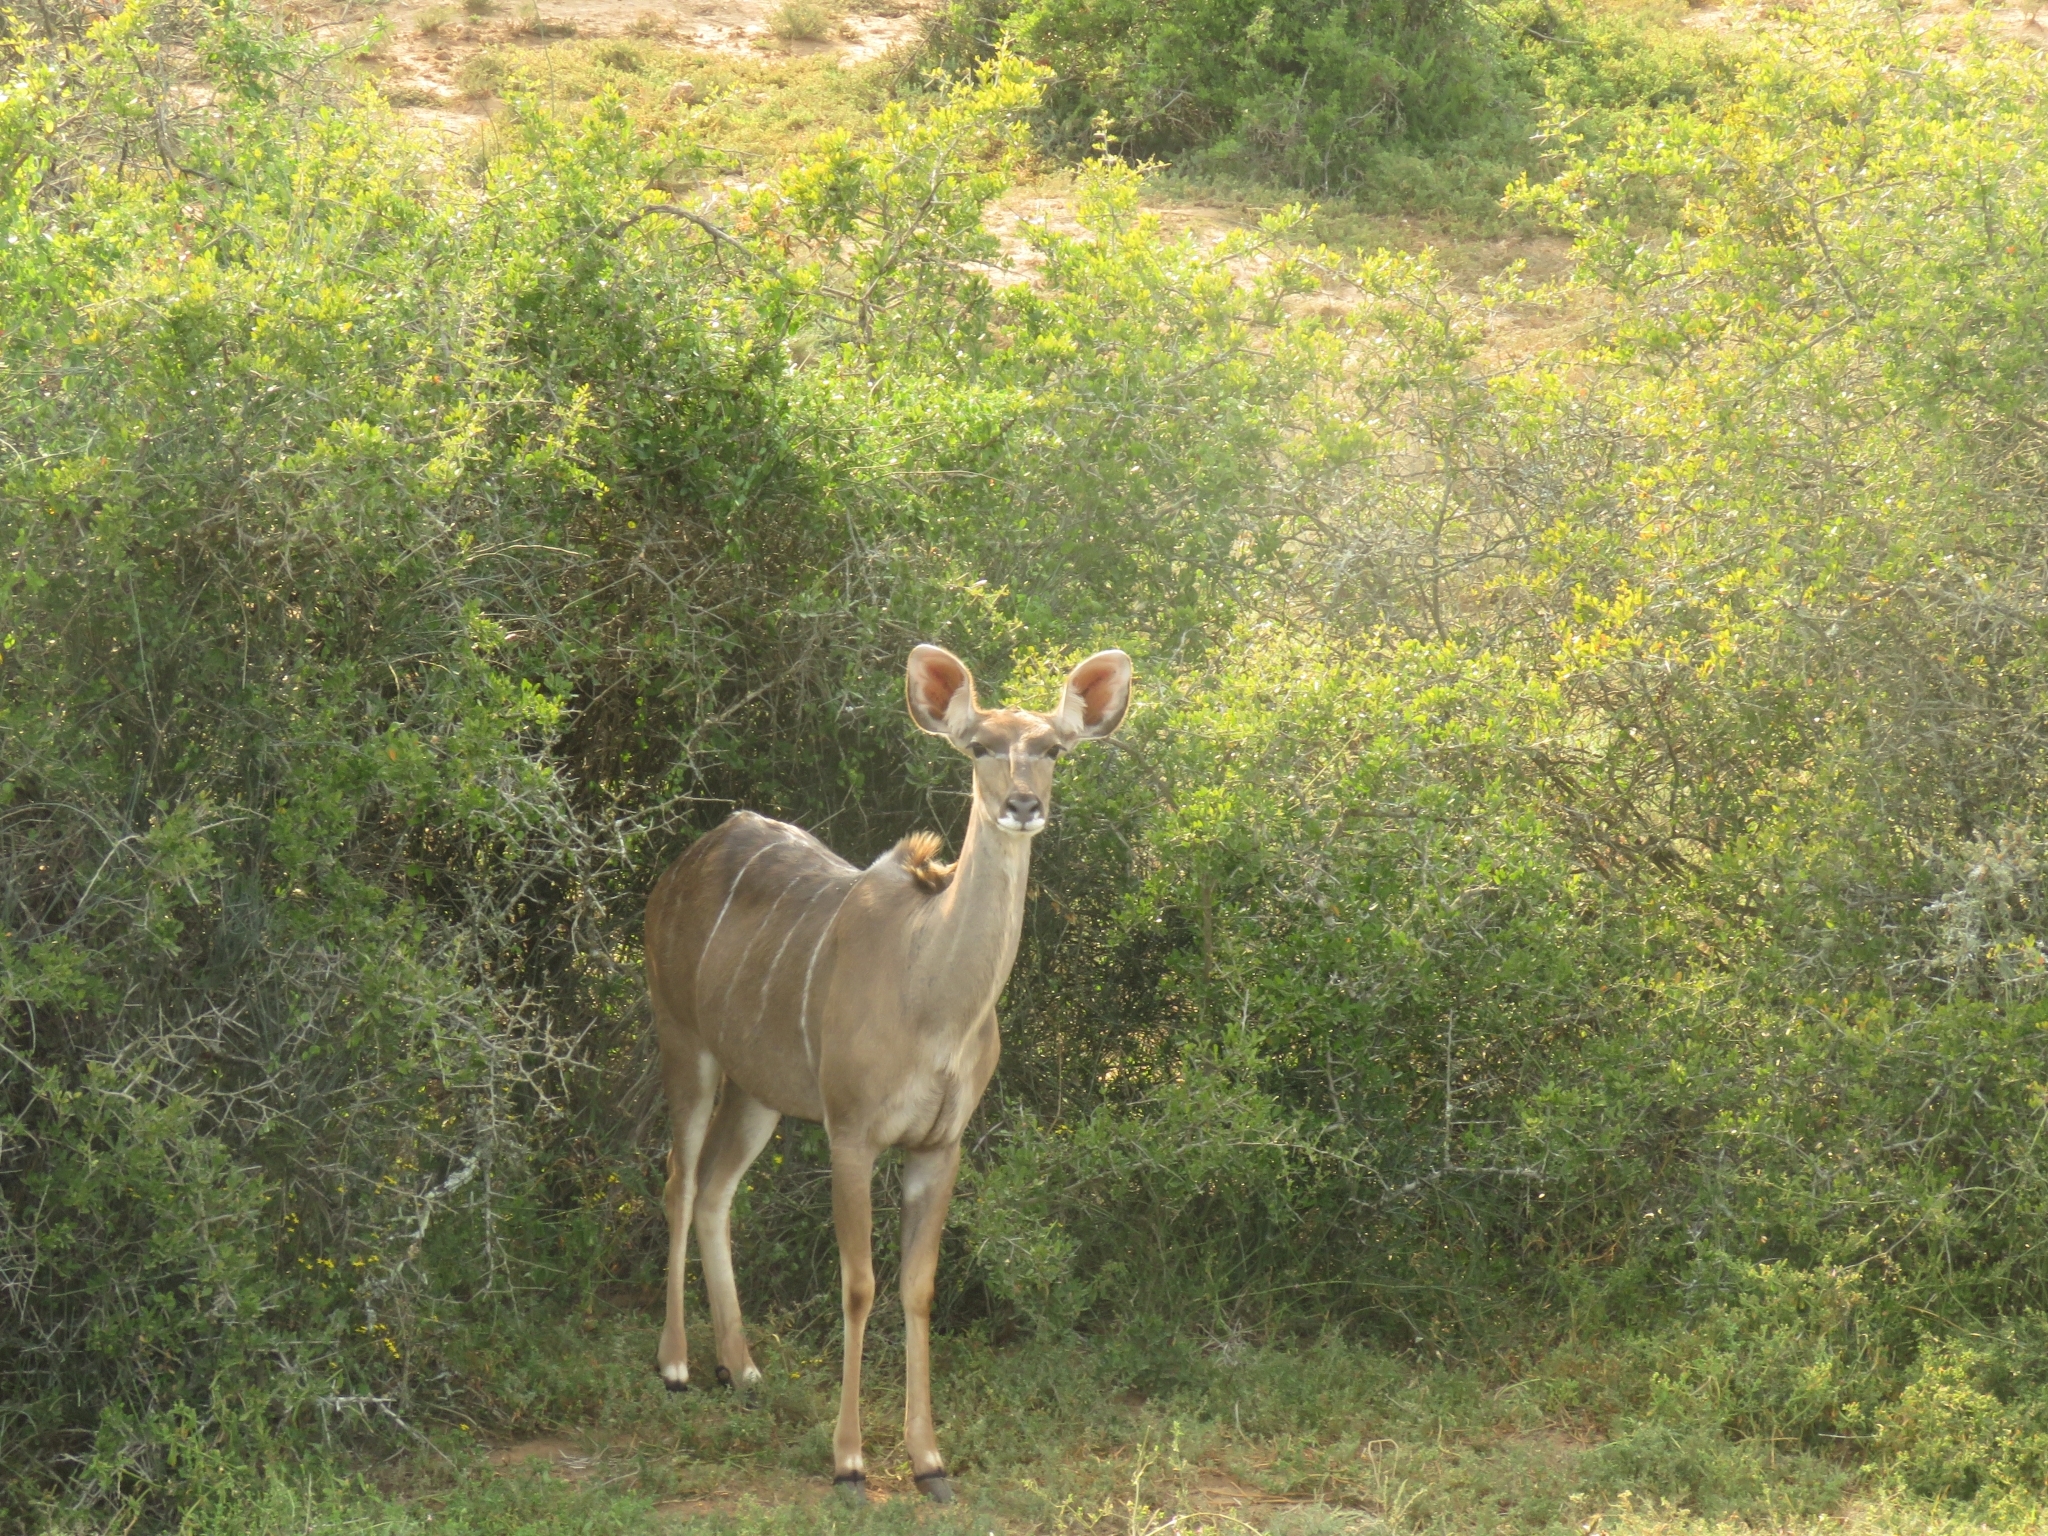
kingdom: Animalia
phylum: Chordata
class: Mammalia
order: Artiodactyla
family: Bovidae
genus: Tragelaphus
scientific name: Tragelaphus strepsiceros
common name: Greater kudu
